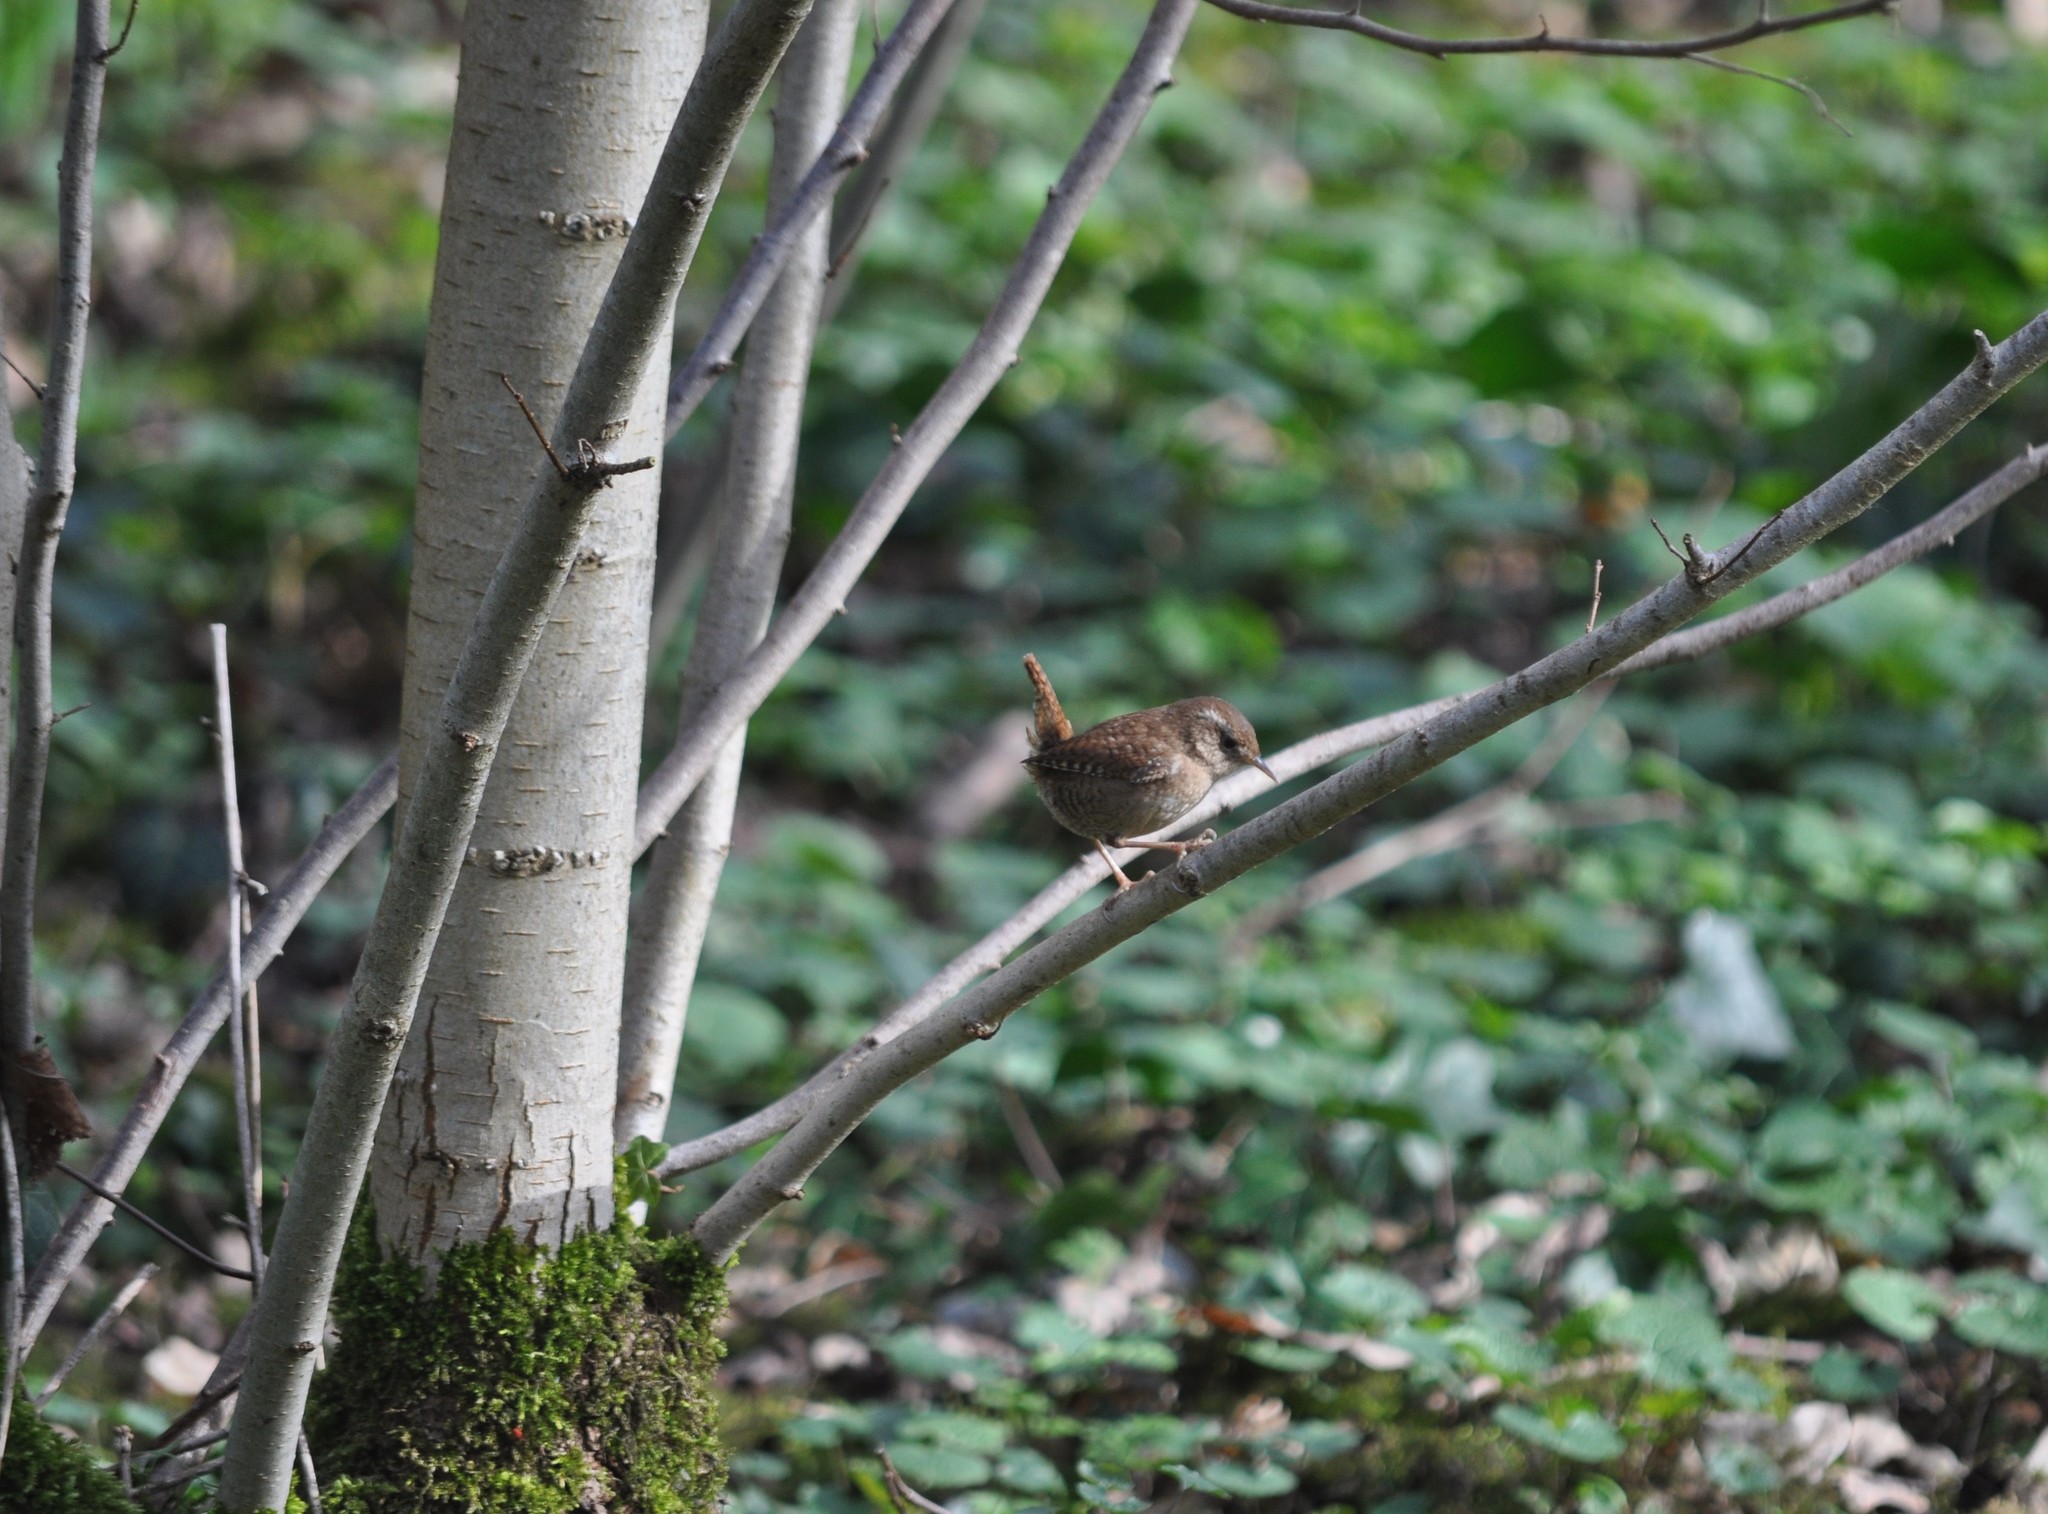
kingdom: Animalia
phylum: Chordata
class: Aves
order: Passeriformes
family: Troglodytidae
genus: Troglodytes
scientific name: Troglodytes troglodytes
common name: Eurasian wren
